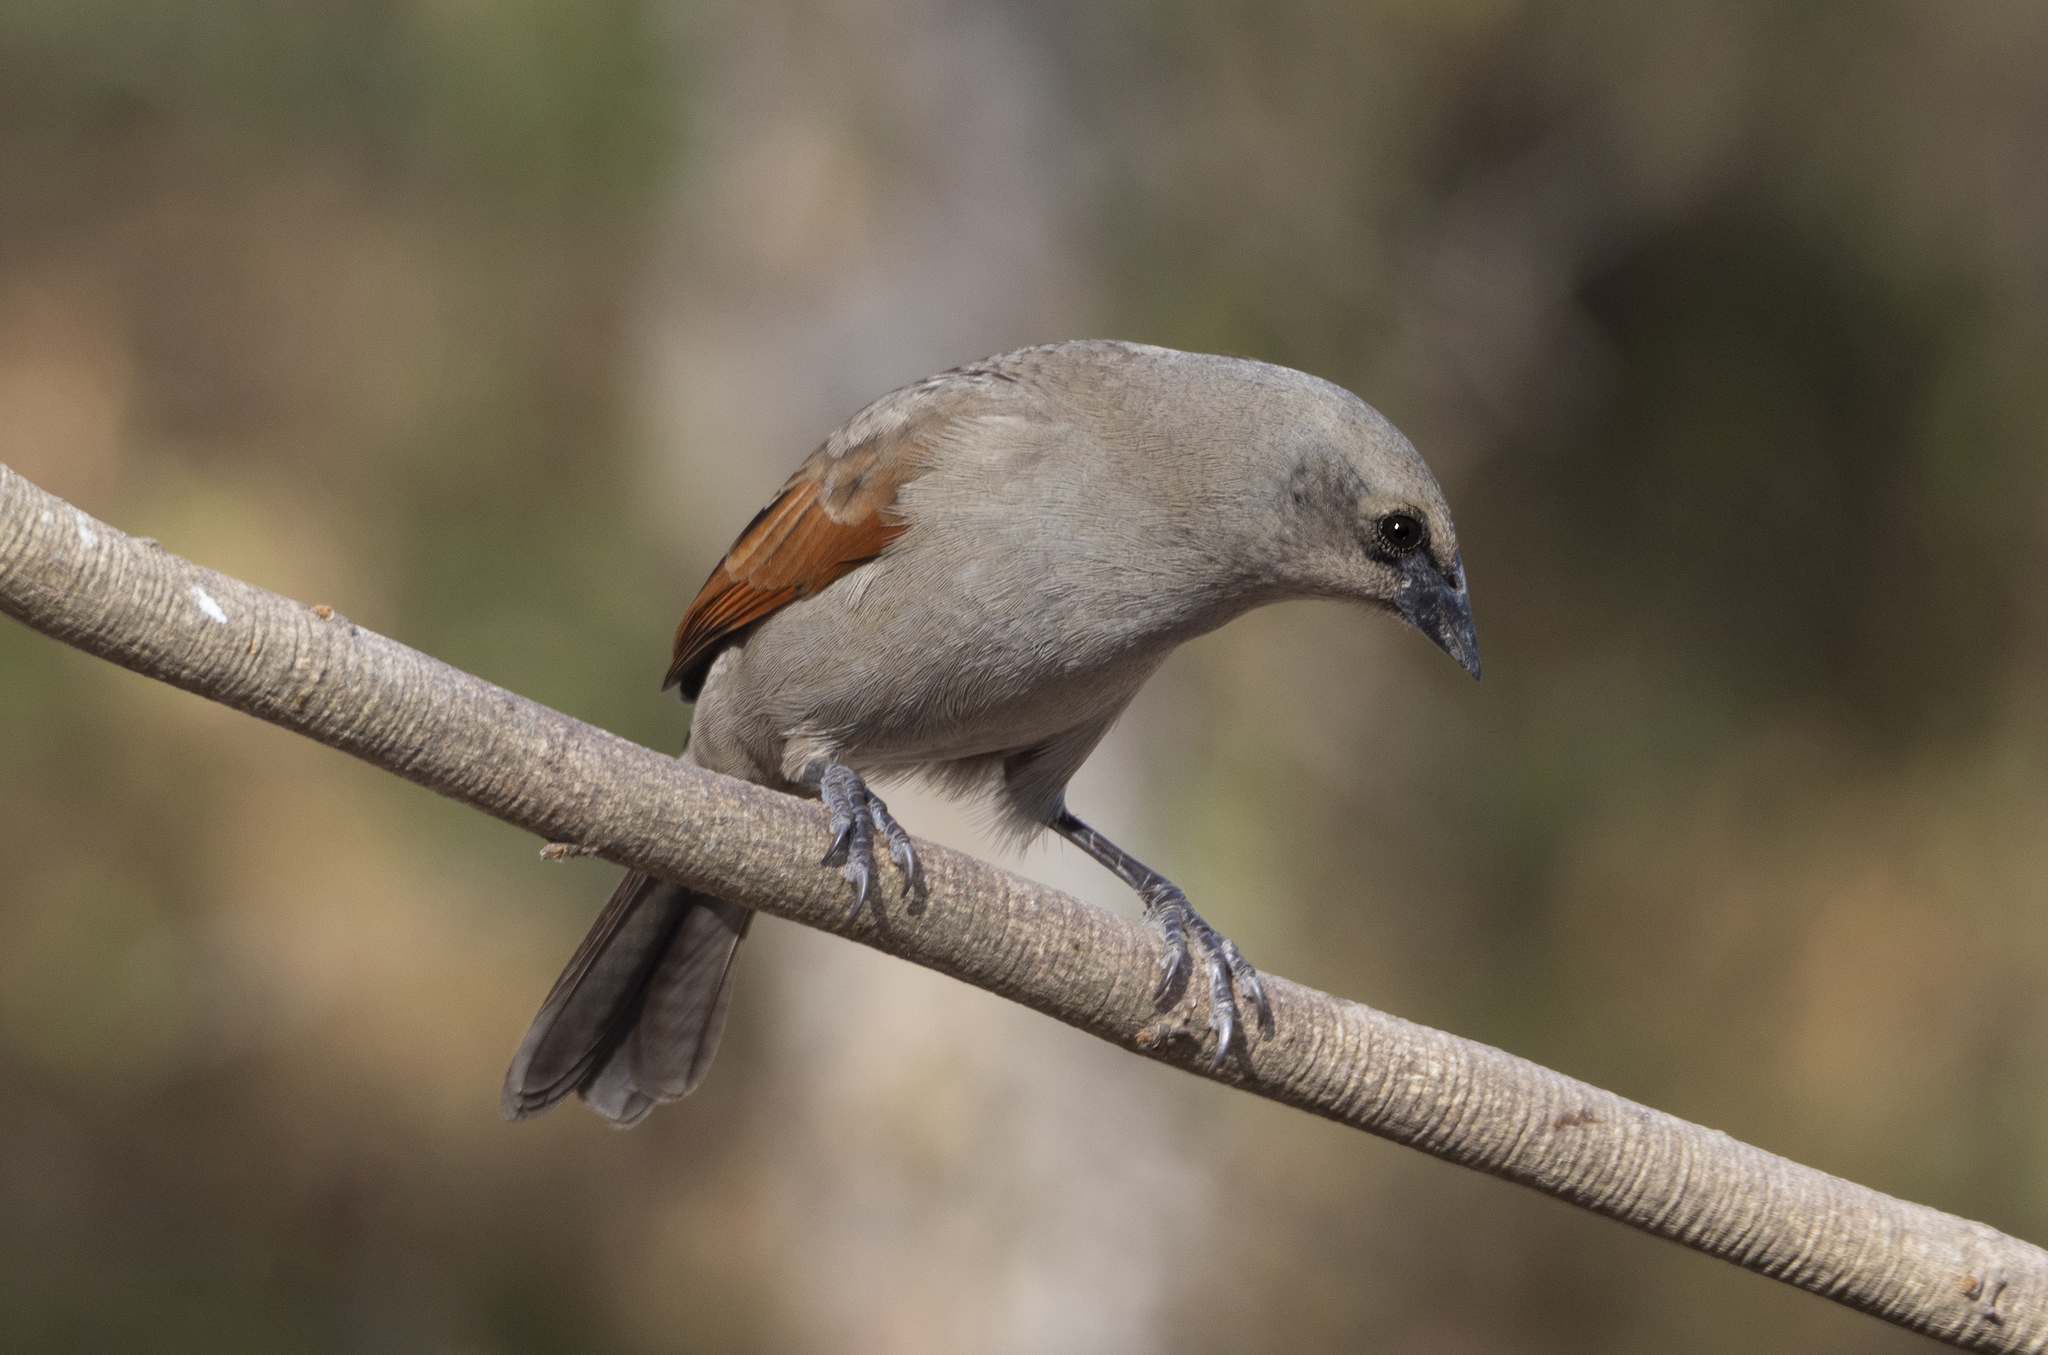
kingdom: Animalia
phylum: Chordata
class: Aves
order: Passeriformes
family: Icteridae
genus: Agelaioides
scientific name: Agelaioides badius
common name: Baywing
